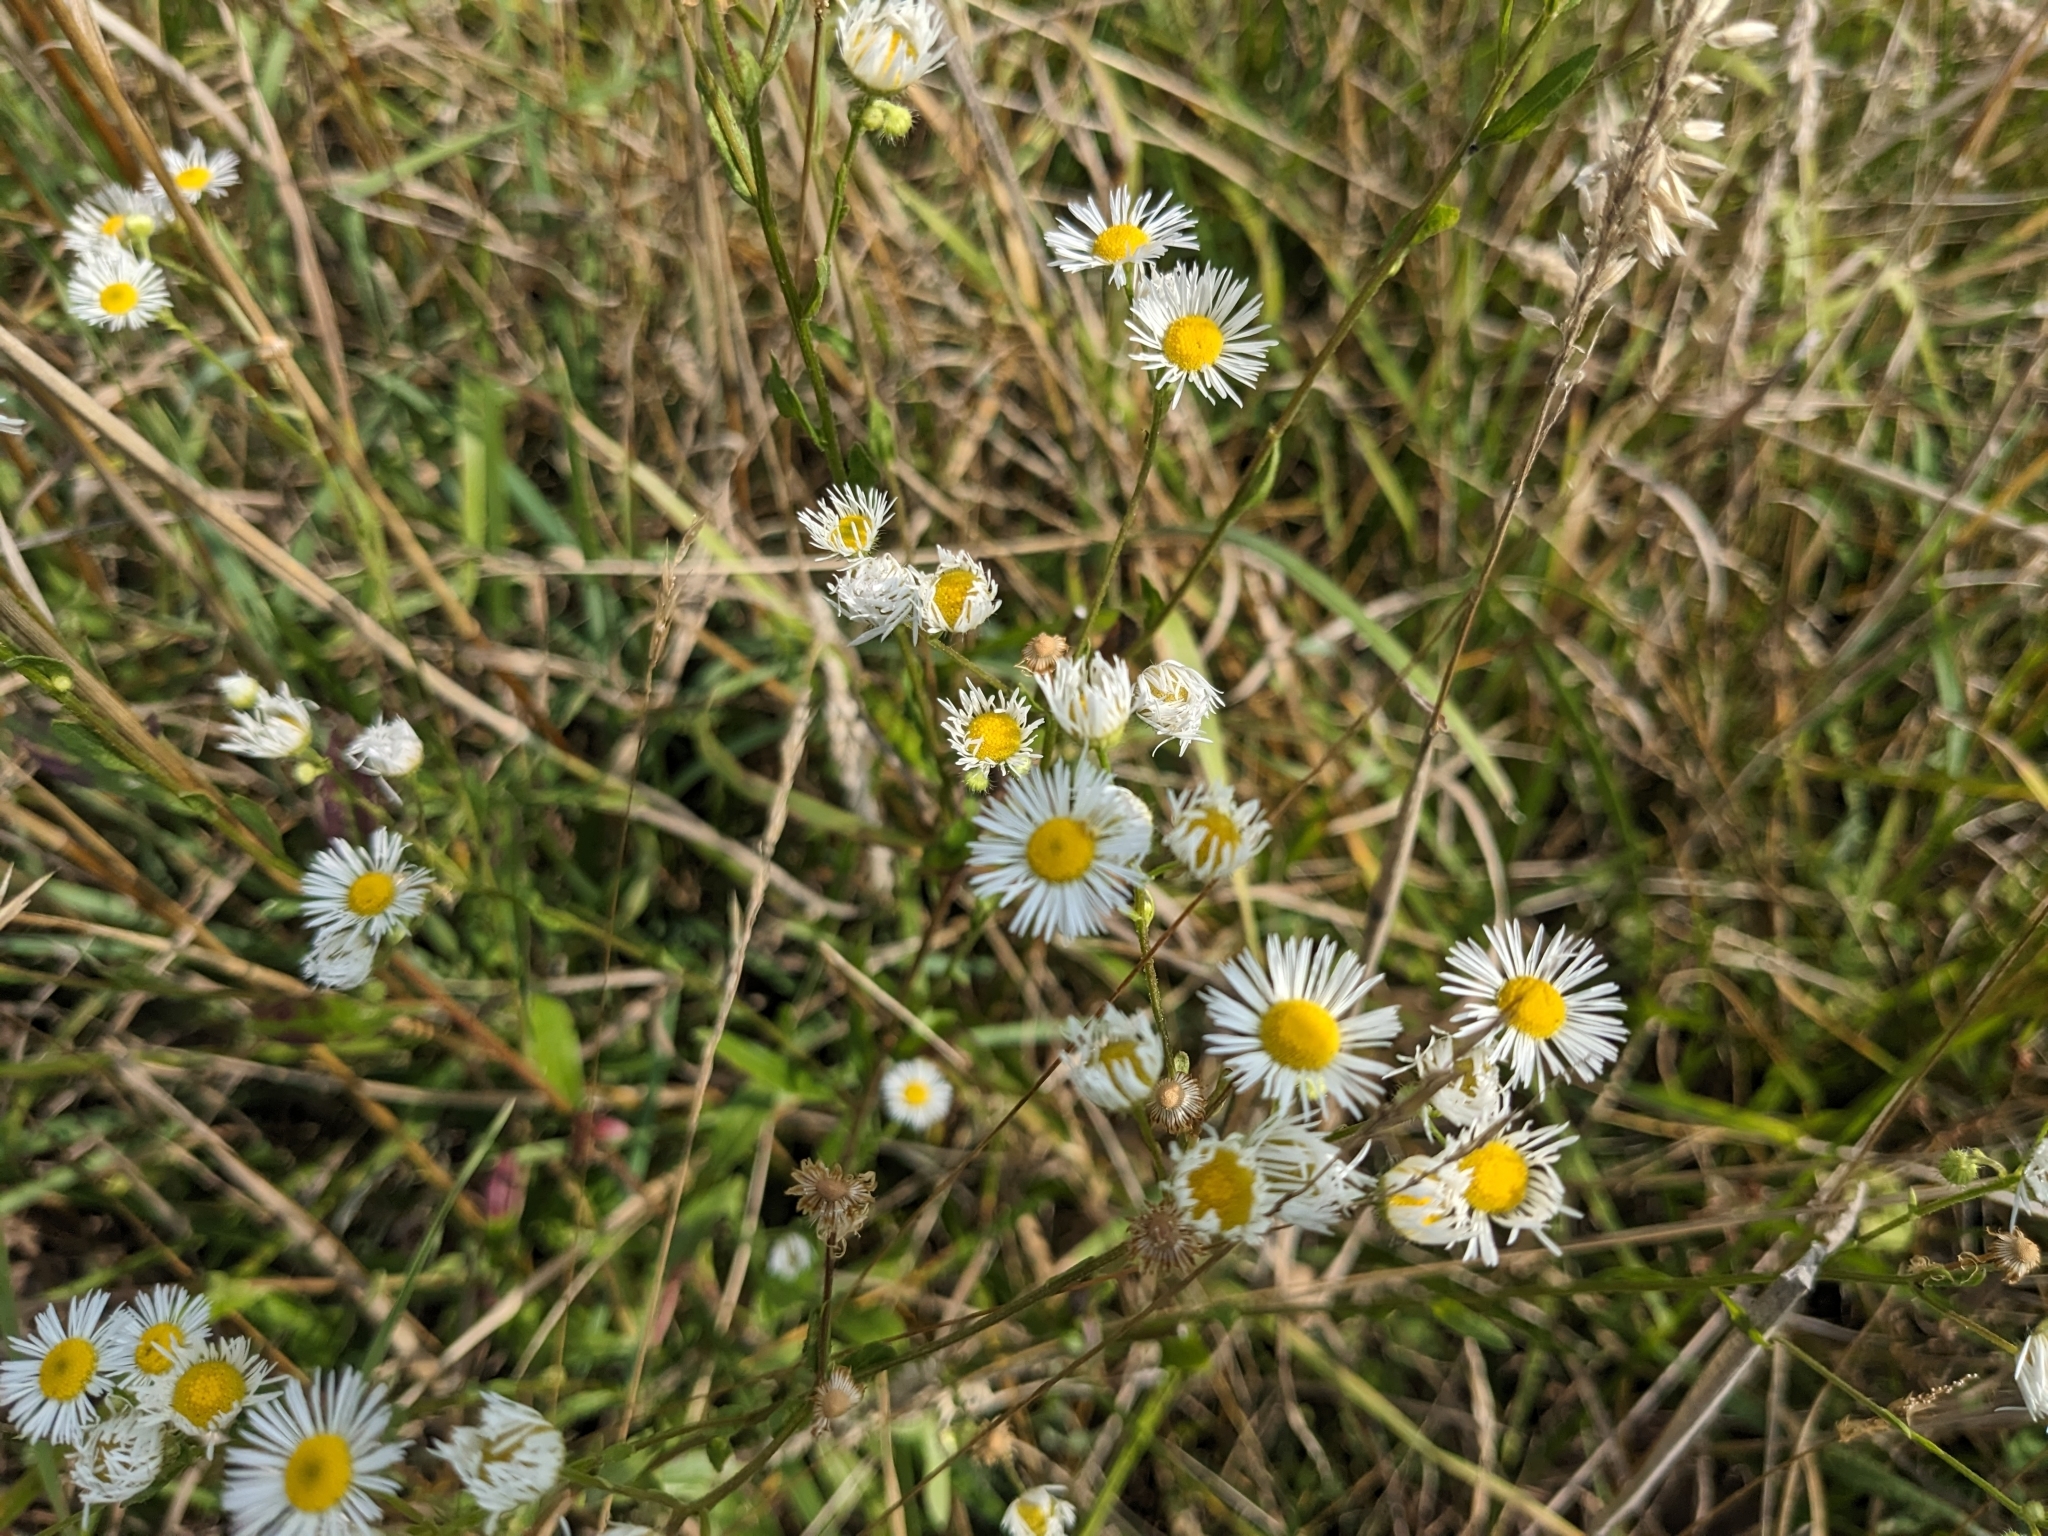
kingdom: Plantae
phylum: Tracheophyta
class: Magnoliopsida
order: Asterales
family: Asteraceae
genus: Erigeron
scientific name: Erigeron annuus
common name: Tall fleabane
